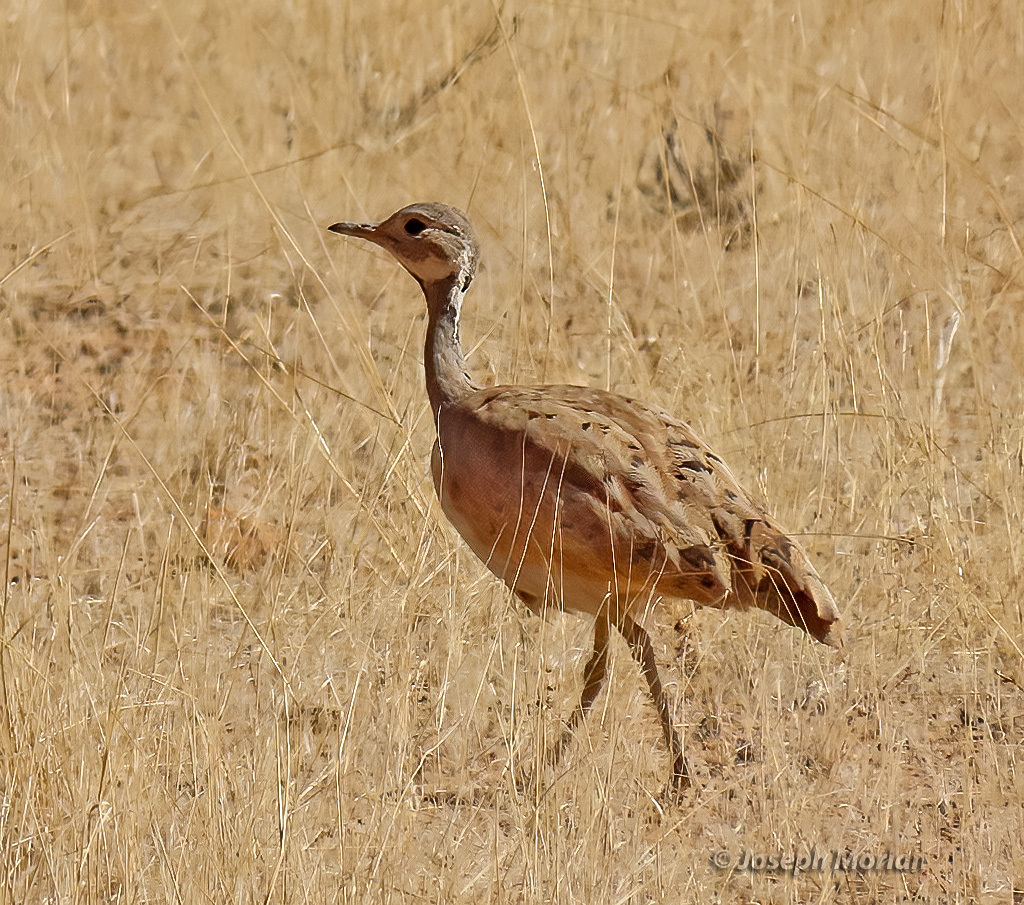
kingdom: Animalia
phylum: Chordata
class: Aves
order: Otidiformes
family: Otididae
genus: Heterotetrax
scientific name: Heterotetrax rueppelii
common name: Rüppell's korhaan
